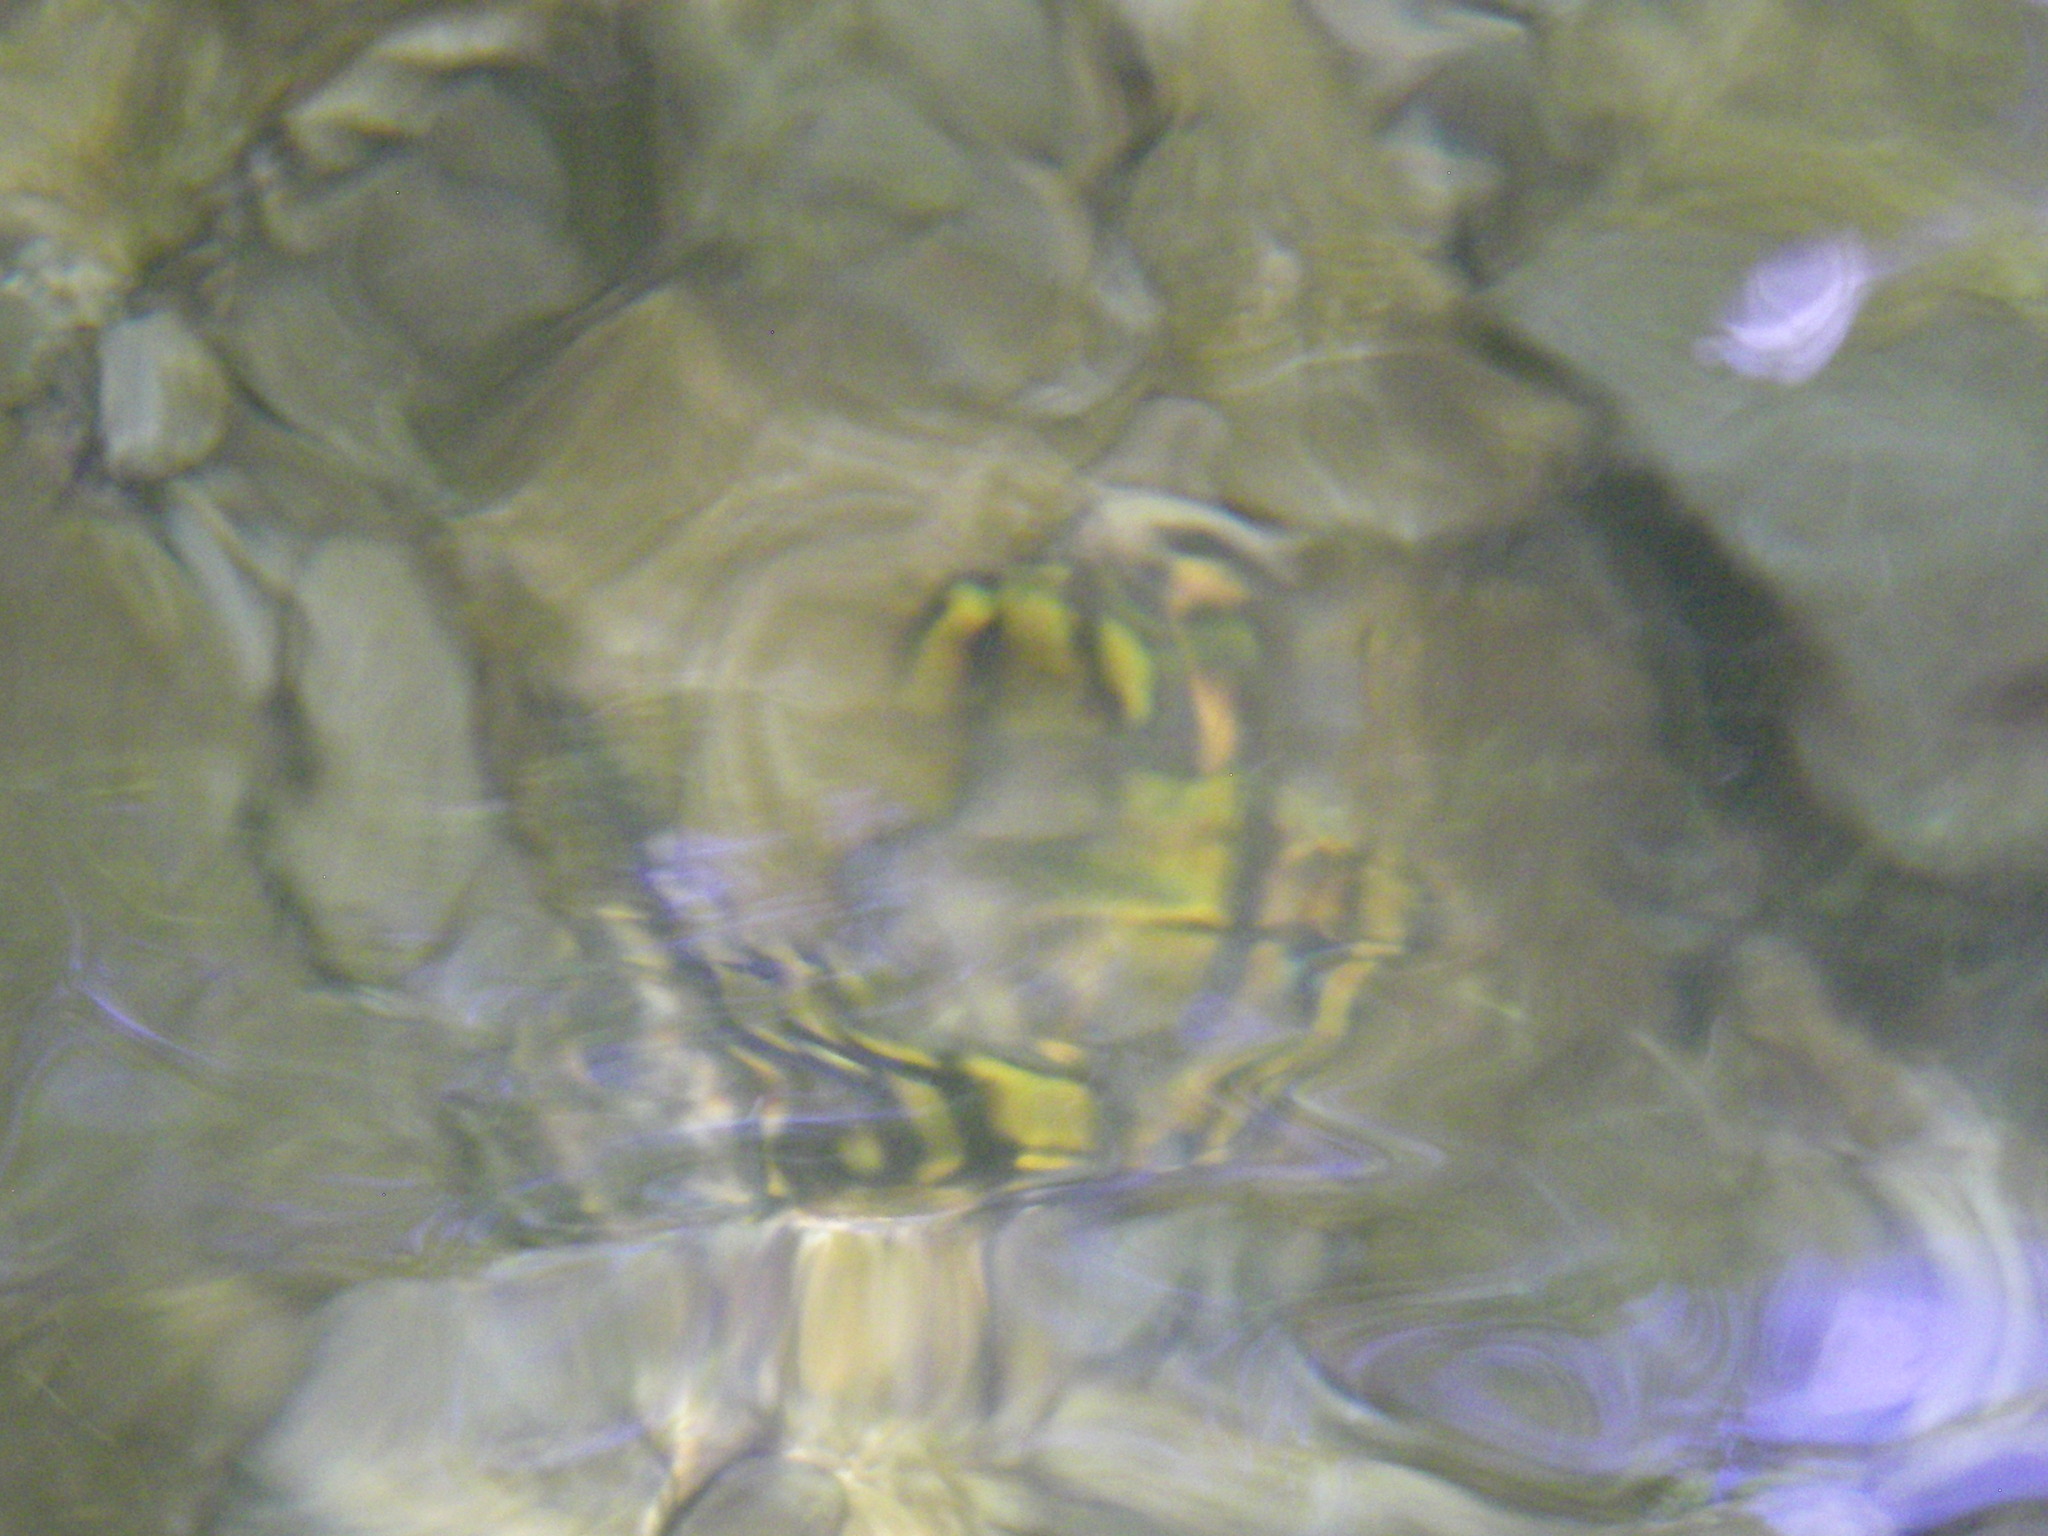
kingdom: Animalia
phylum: Chordata
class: Amphibia
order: Caudata
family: Salamandridae
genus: Salamandra
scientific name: Salamandra salamandra
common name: Fire salamander
